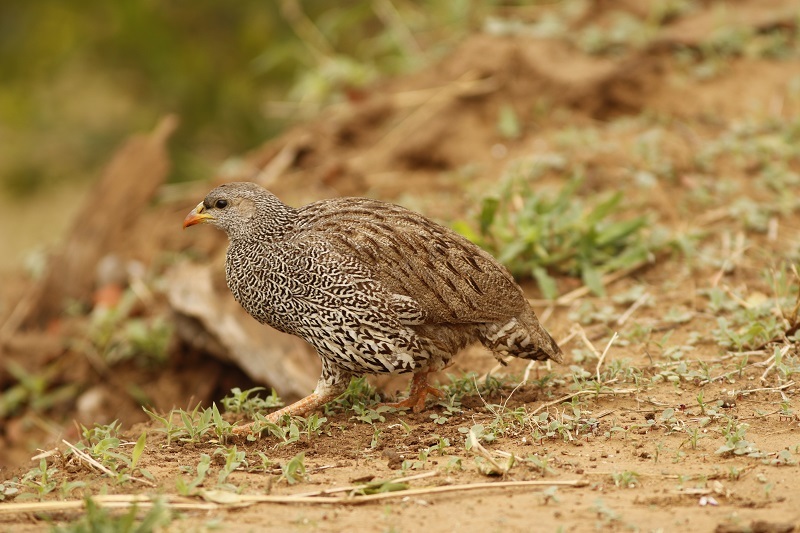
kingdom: Animalia
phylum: Chordata
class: Aves
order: Galliformes
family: Phasianidae
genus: Pternistis
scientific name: Pternistis natalensis
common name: Natal spurfowl
